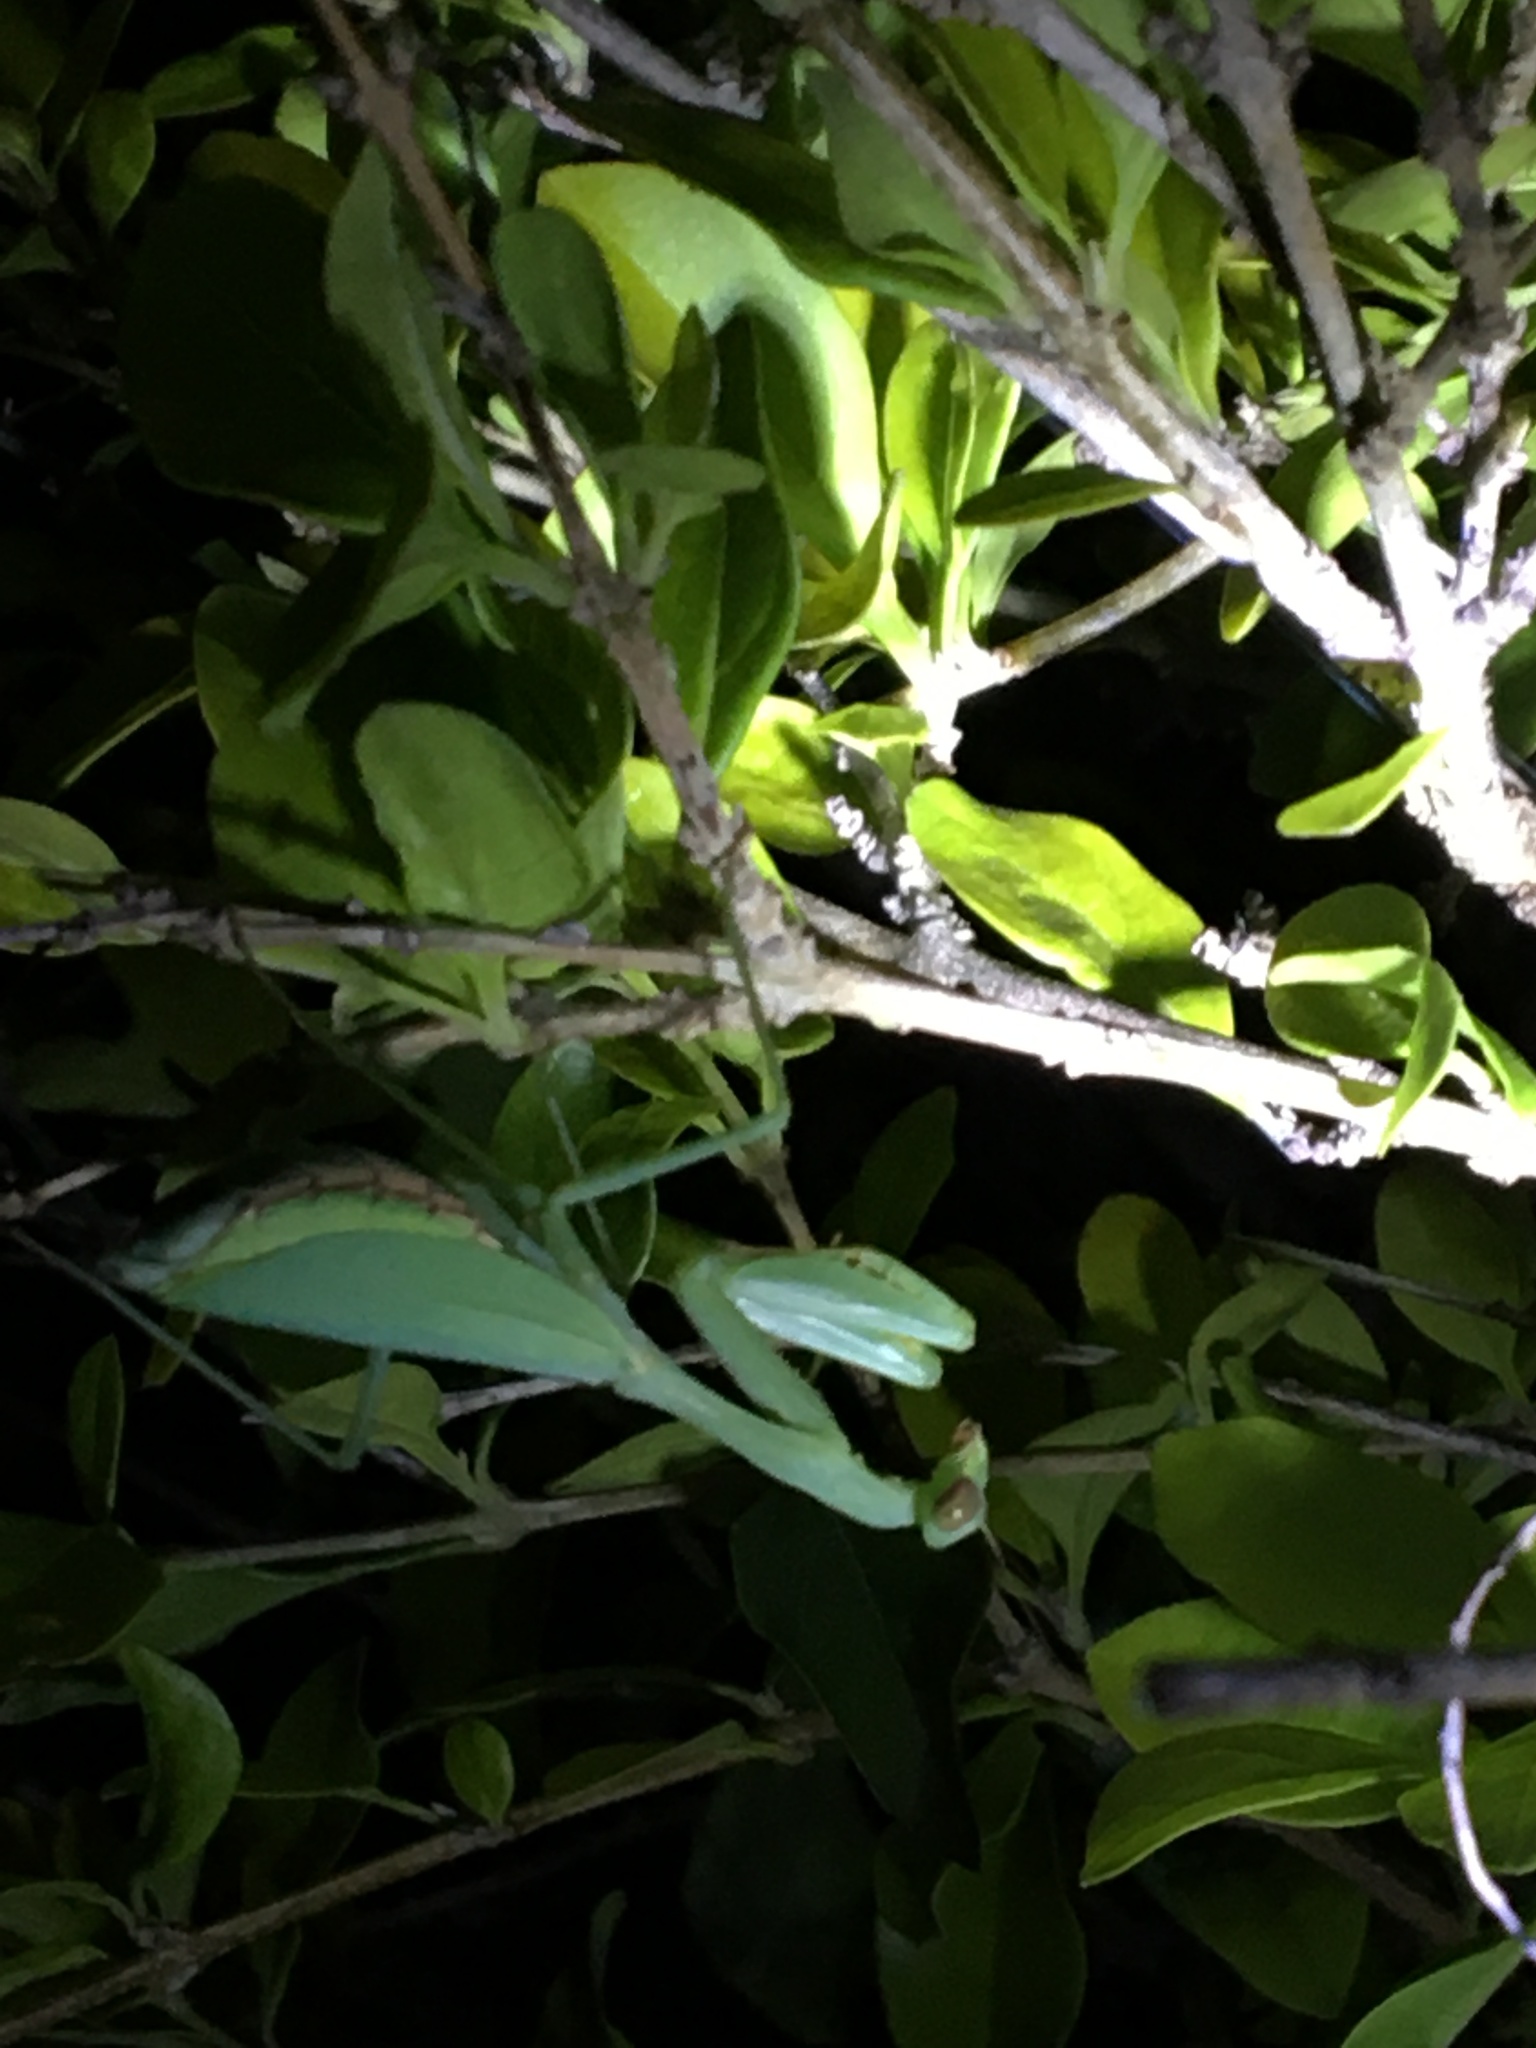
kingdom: Animalia
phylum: Arthropoda
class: Insecta
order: Mantodea
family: Miomantidae
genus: Miomantis
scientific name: Miomantis caffra
